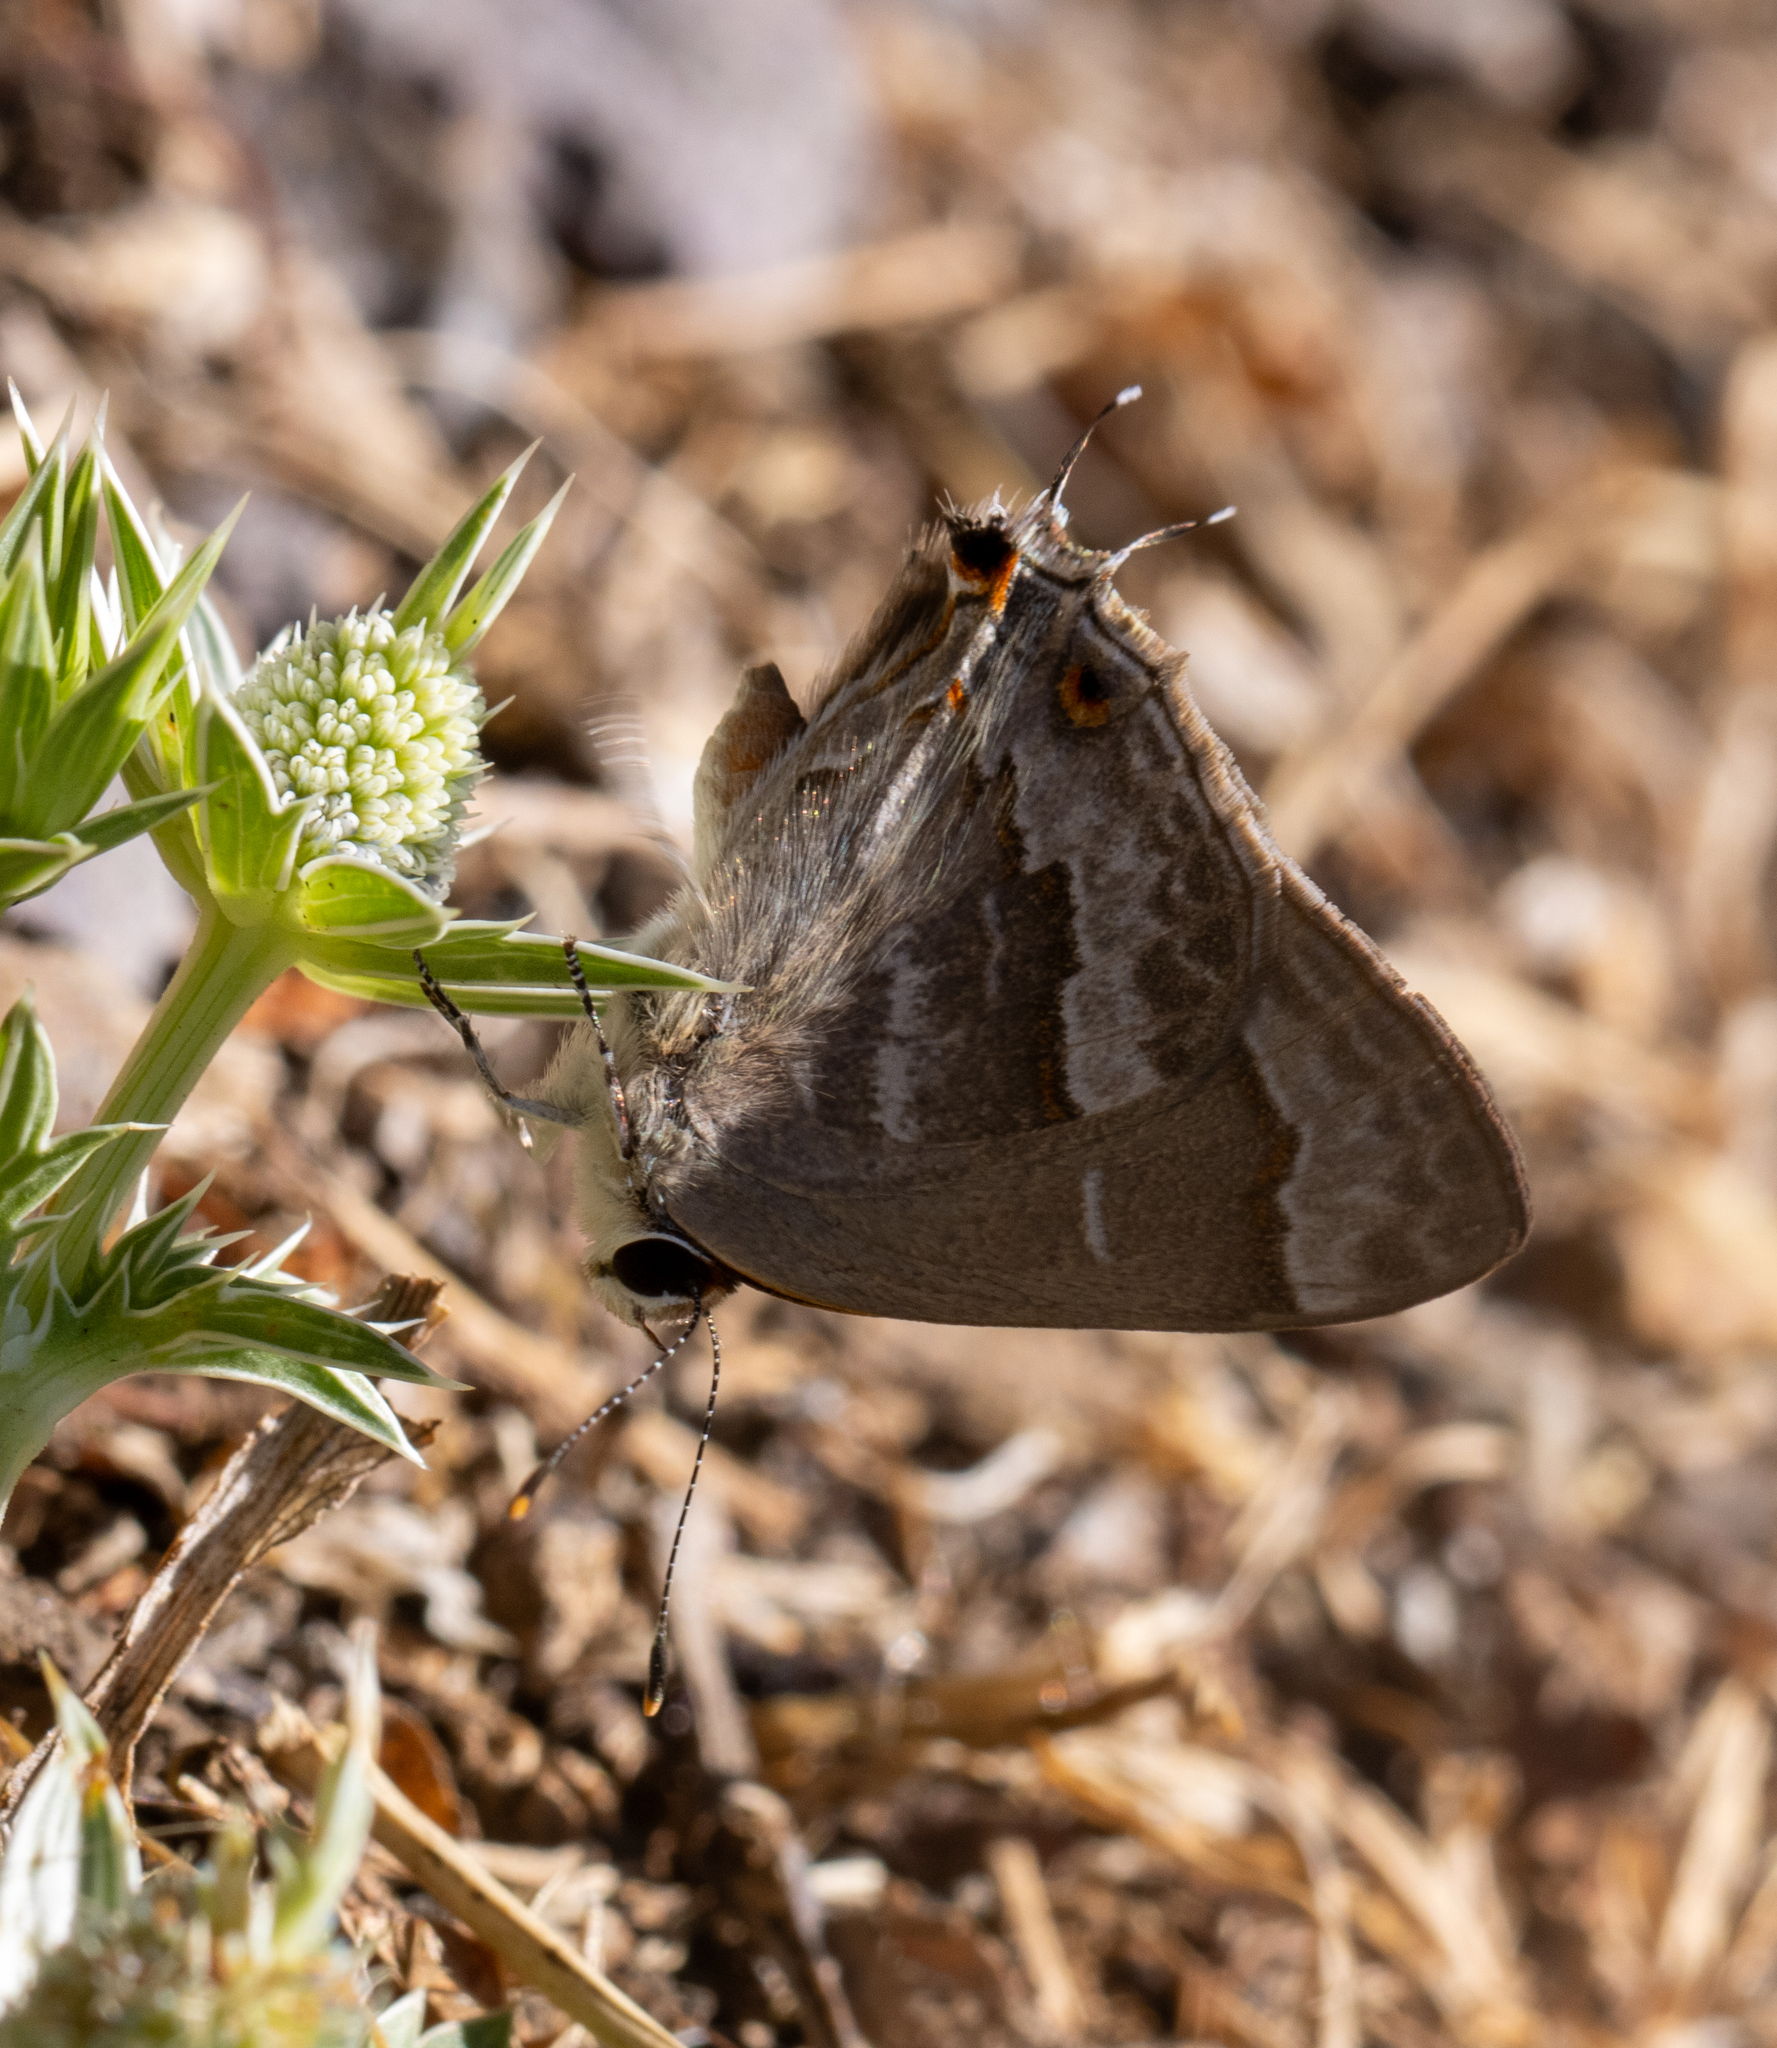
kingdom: Animalia
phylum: Arthropoda
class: Insecta
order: Lepidoptera
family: Lycaenidae
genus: Thecla
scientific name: Thecla yojoa
